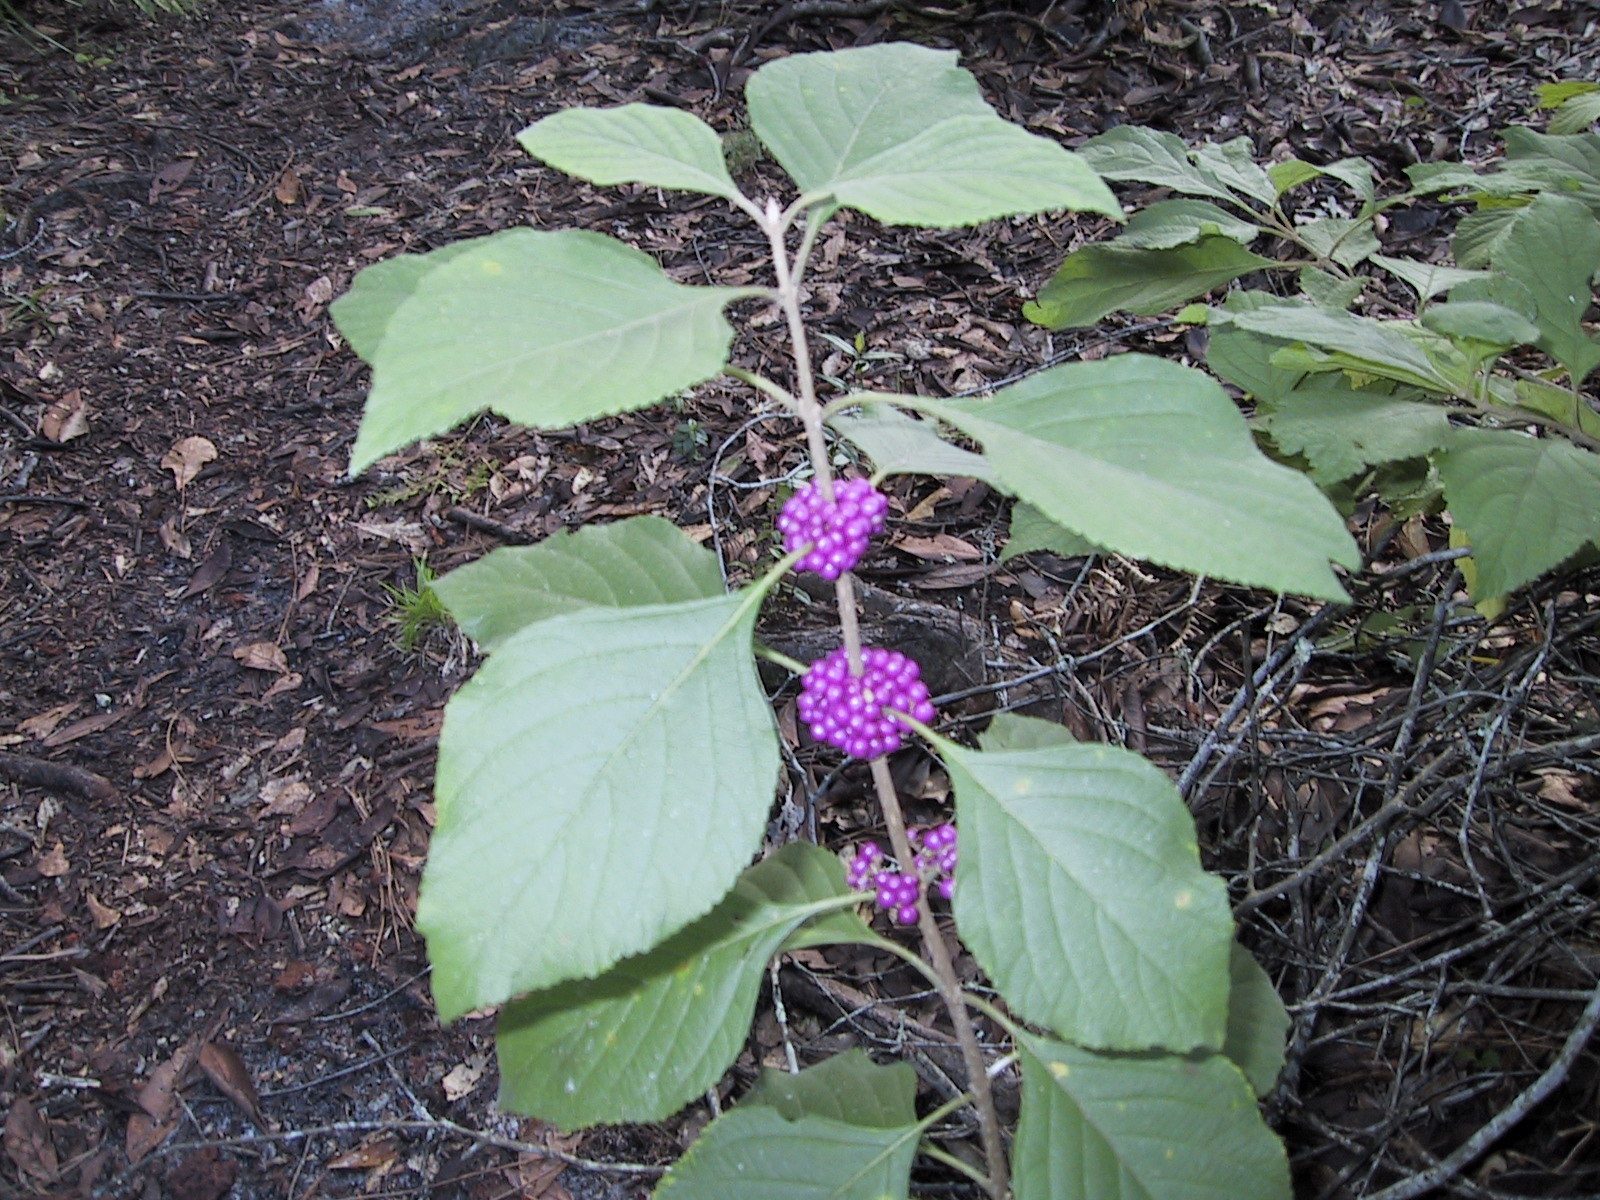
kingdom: Plantae
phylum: Tracheophyta
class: Magnoliopsida
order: Lamiales
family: Lamiaceae
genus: Callicarpa
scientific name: Callicarpa americana
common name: American beautyberry
